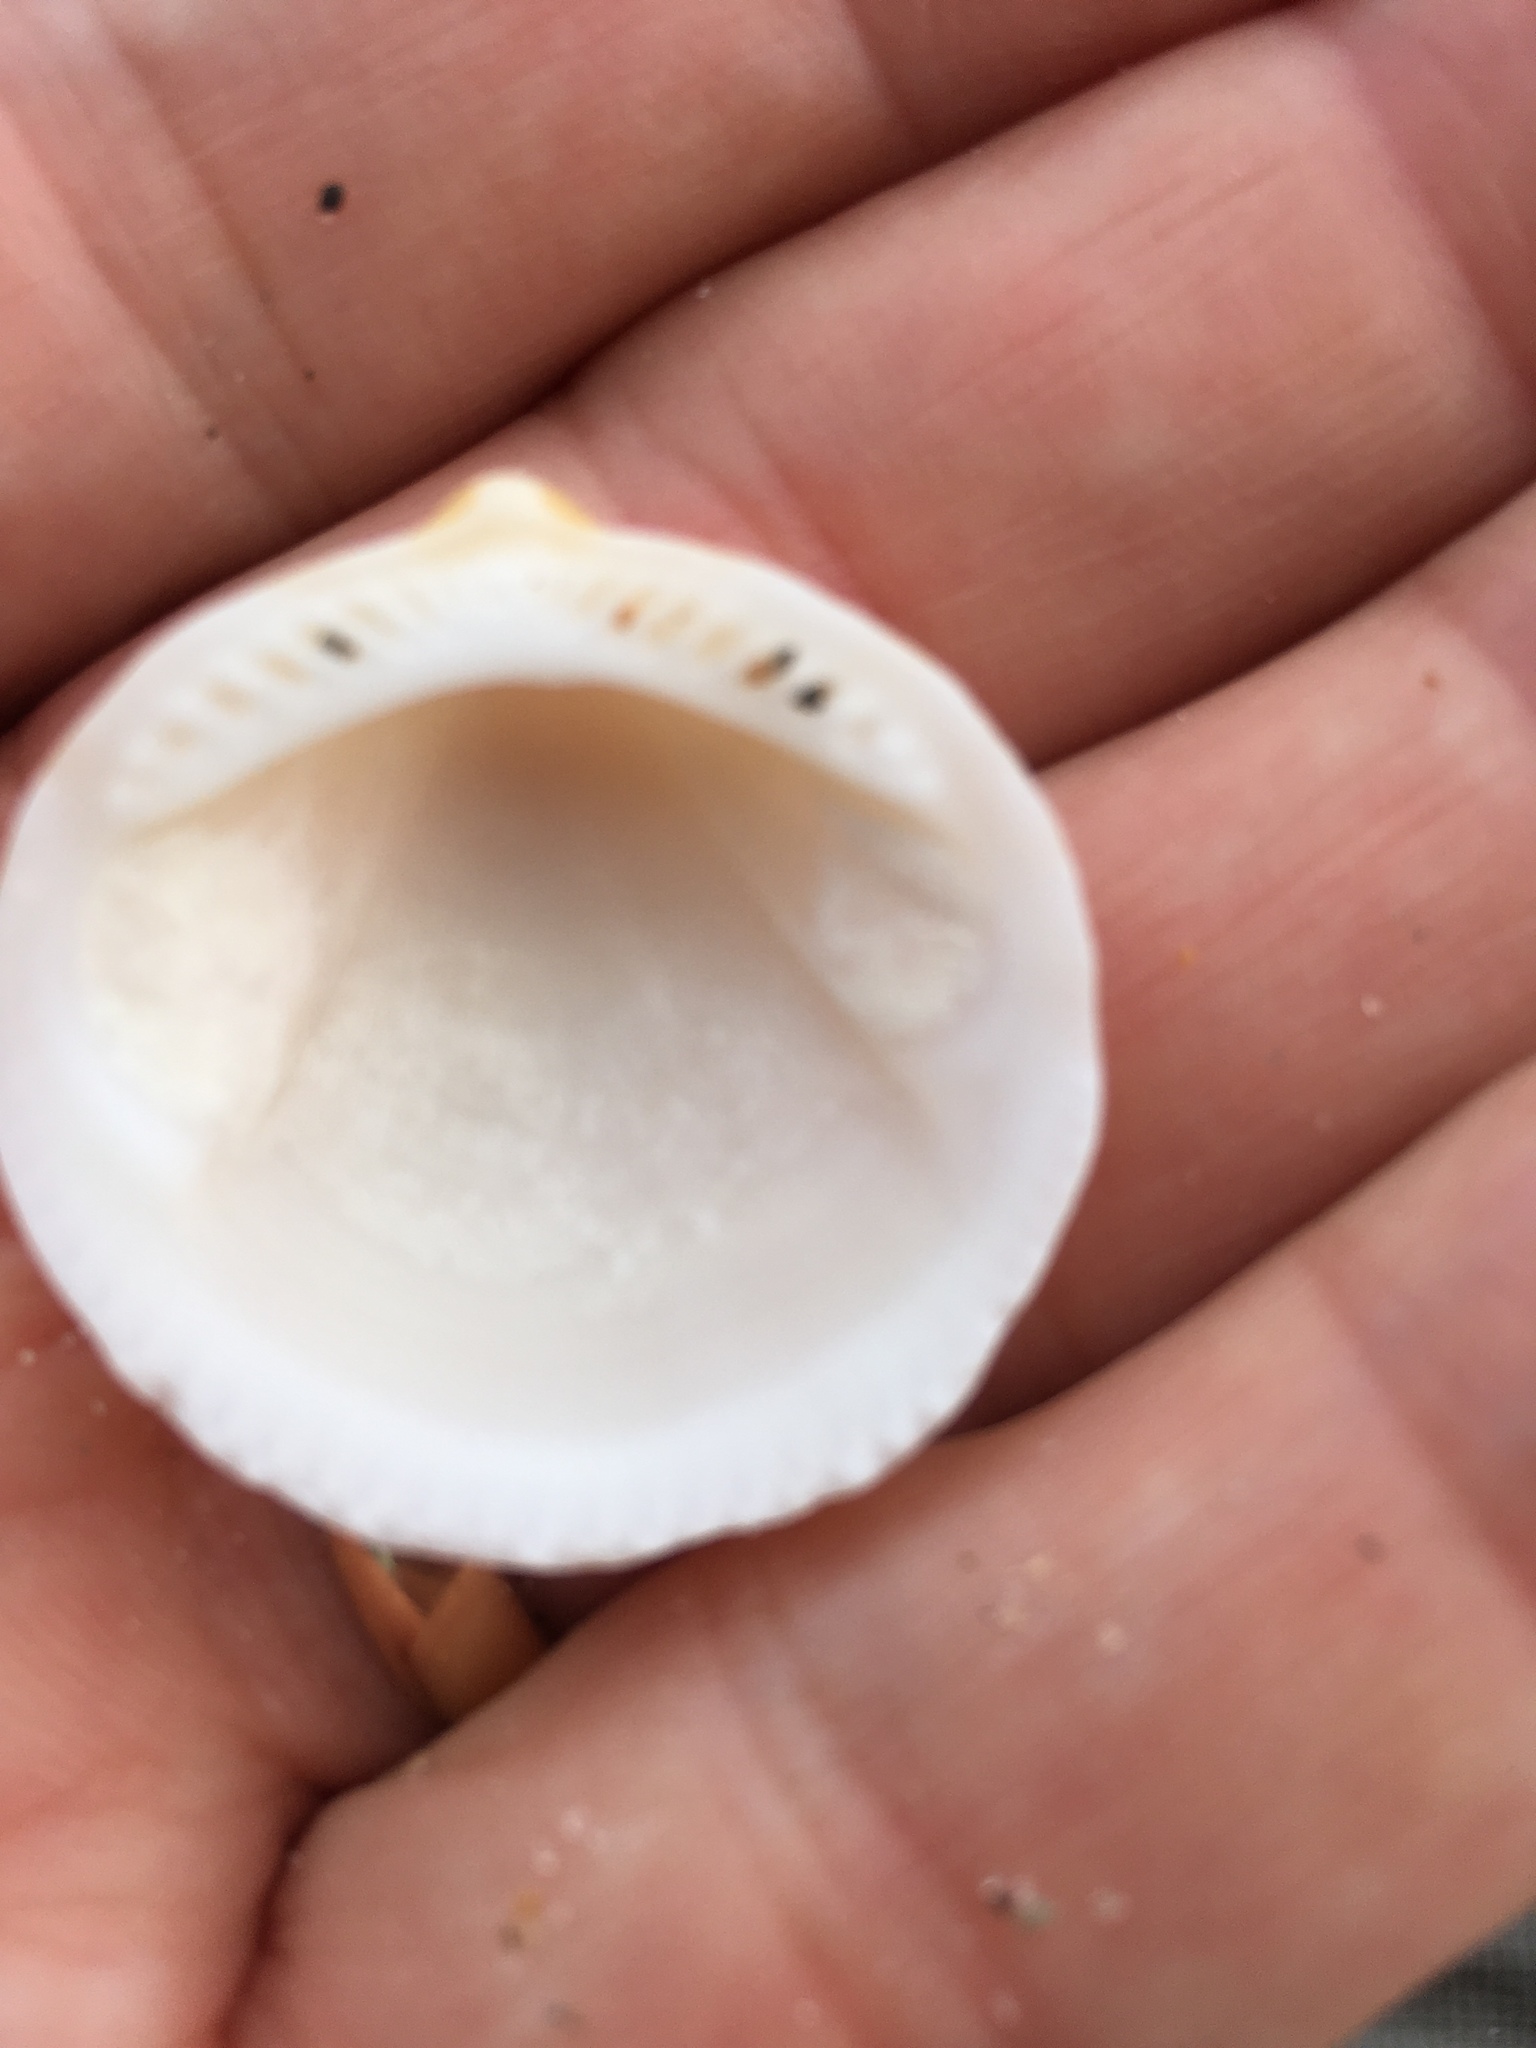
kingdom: Animalia
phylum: Mollusca
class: Bivalvia
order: Arcida
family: Glycymerididae
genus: Glycymeris
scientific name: Glycymeris americana
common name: American bittersweet
